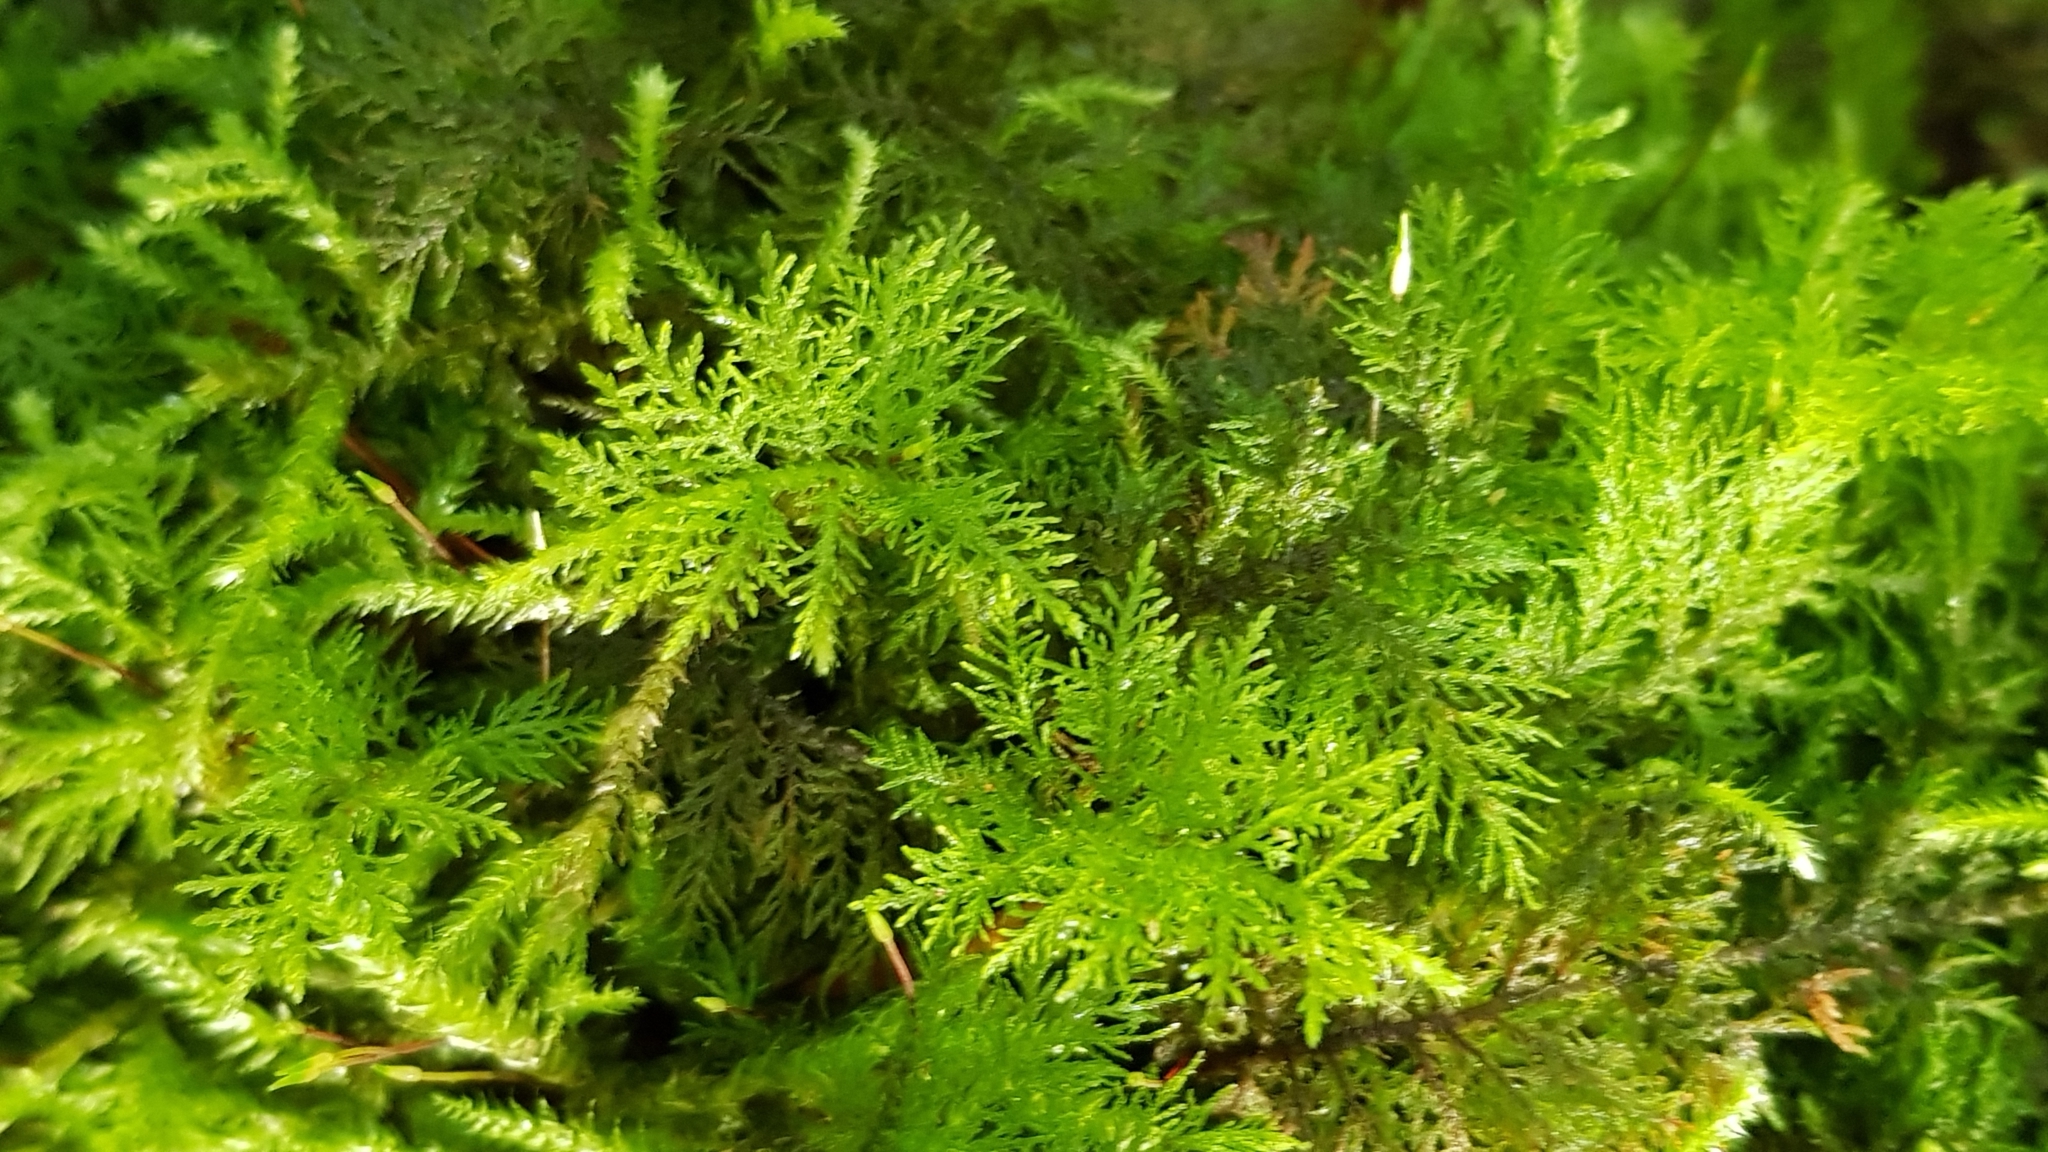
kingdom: Plantae
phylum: Bryophyta
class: Bryopsida
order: Hypnales
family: Thuidiaceae
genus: Thuidium
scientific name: Thuidium tamariscinum
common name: Common tamarisk-moss
